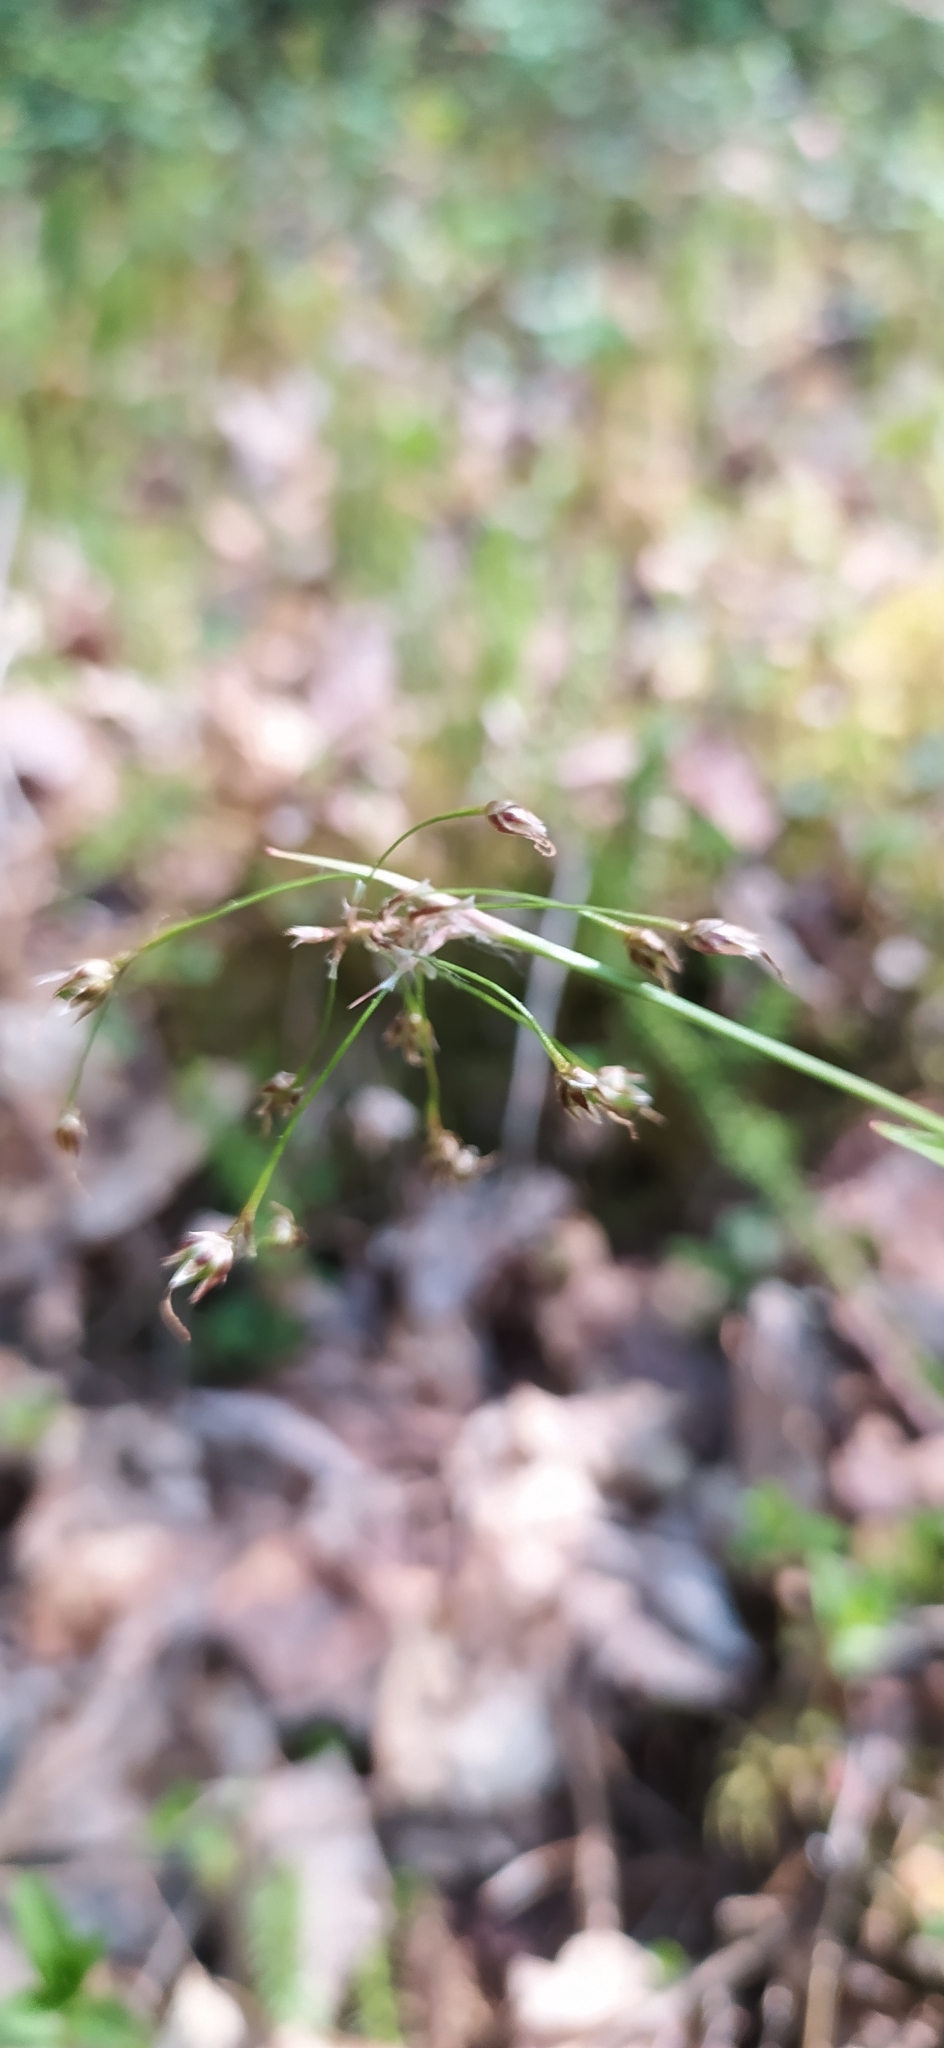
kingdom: Plantae
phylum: Tracheophyta
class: Liliopsida
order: Poales
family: Juncaceae
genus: Luzula
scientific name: Luzula pilosa
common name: Hairy wood-rush
